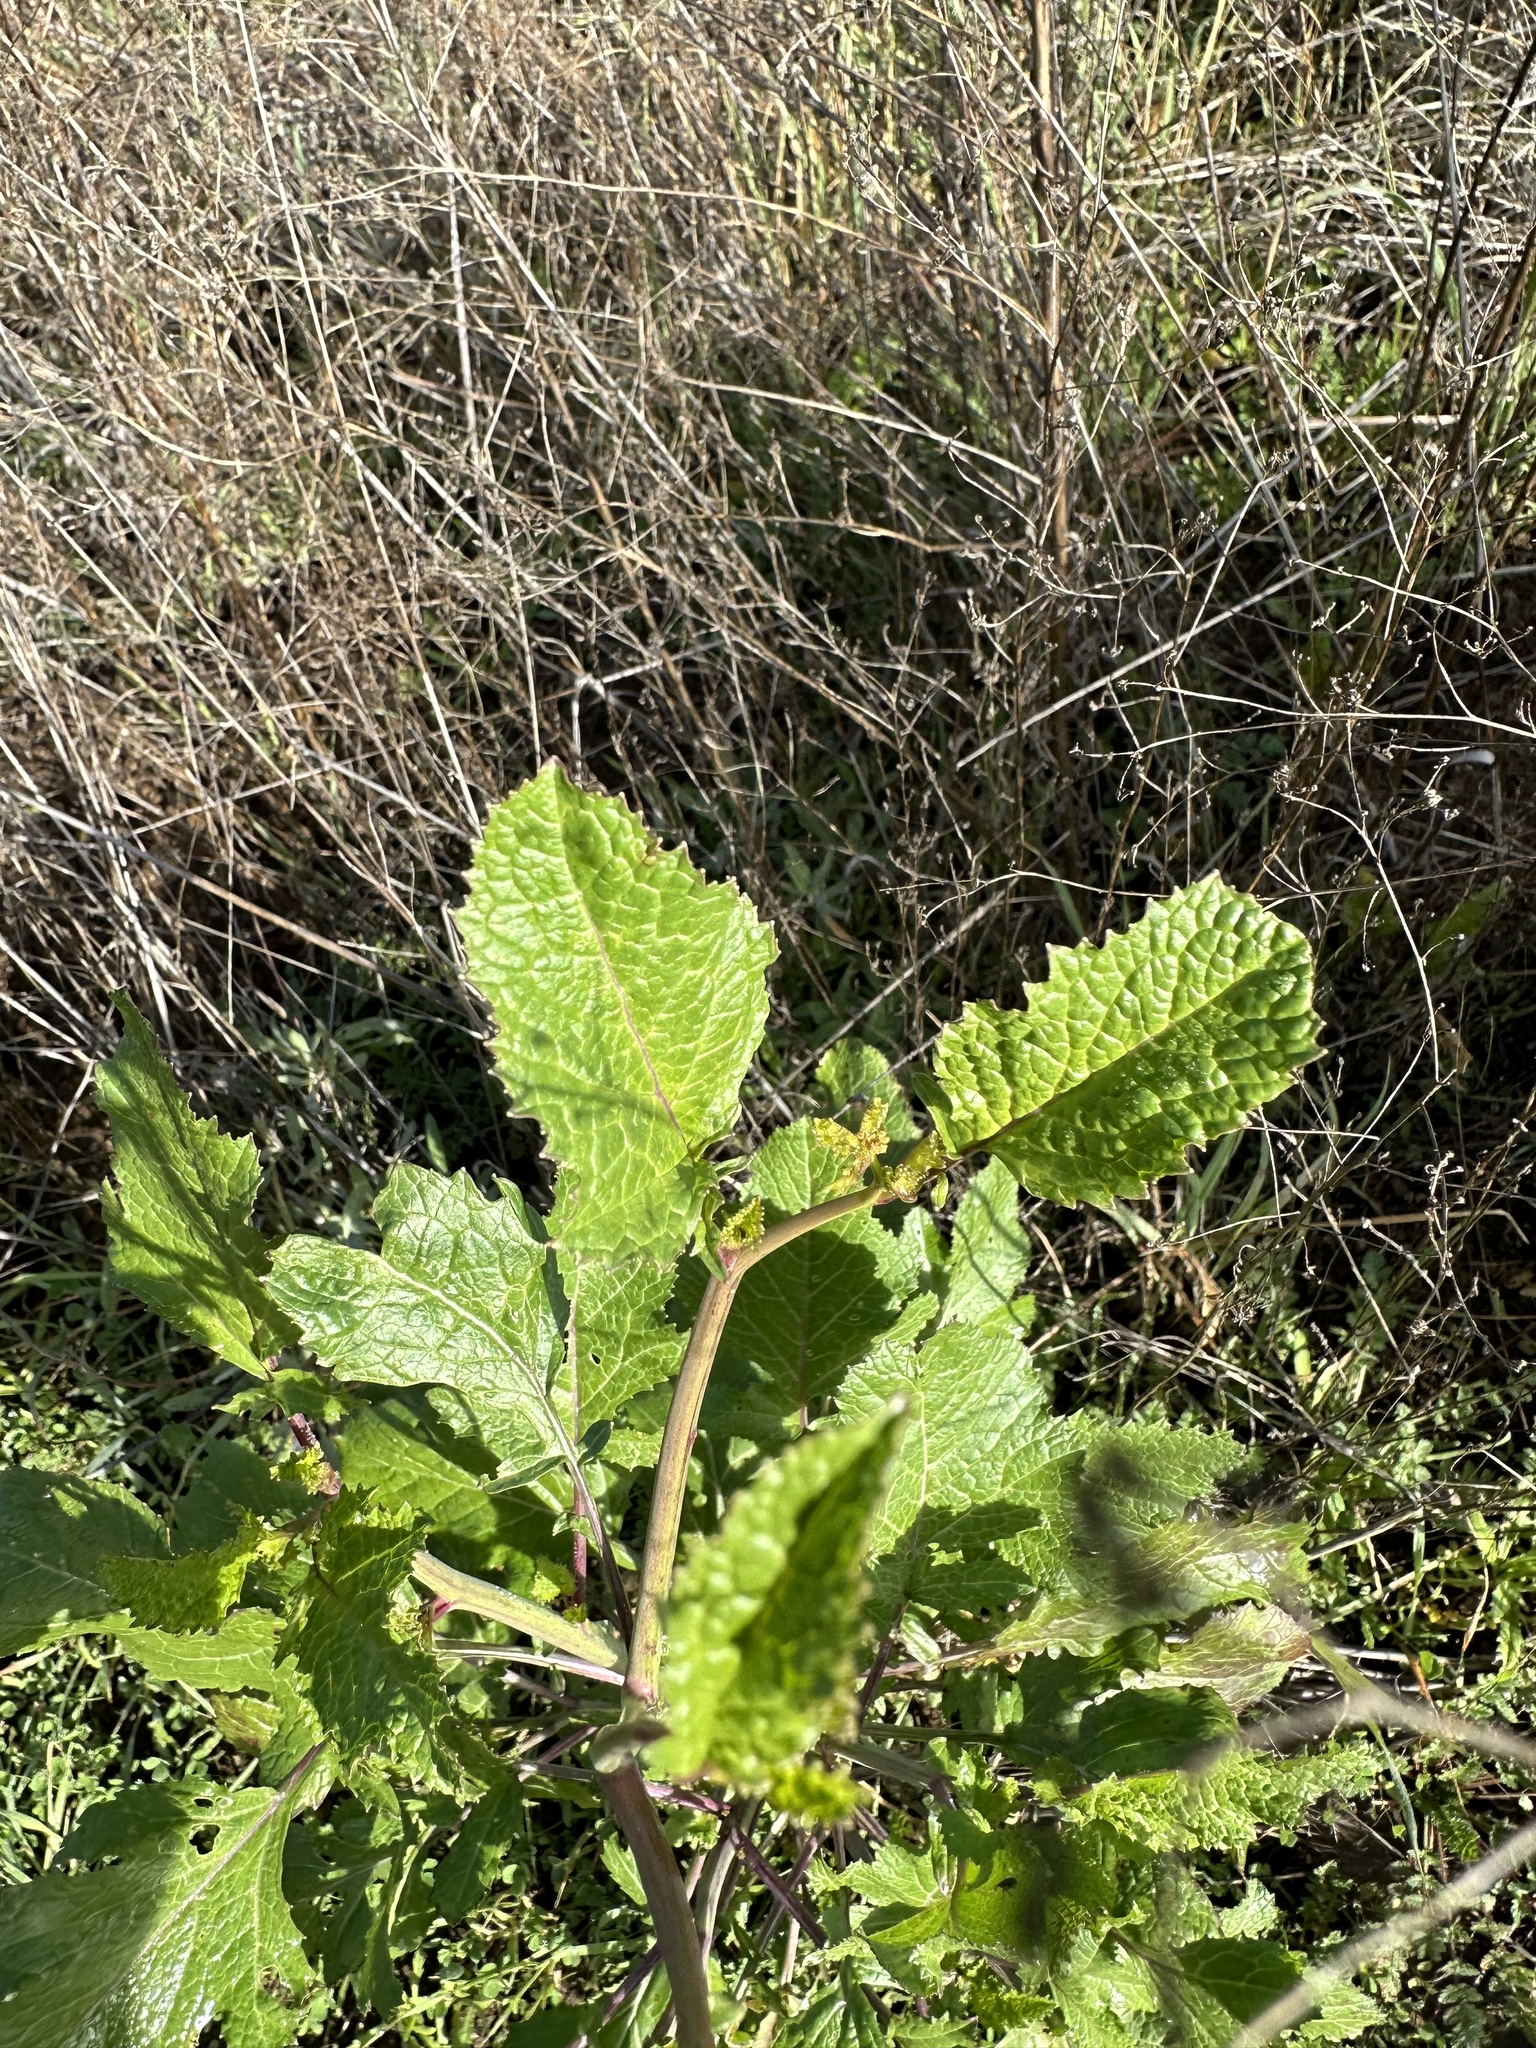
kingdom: Plantae
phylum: Tracheophyta
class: Magnoliopsida
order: Brassicales
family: Brassicaceae
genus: Brassica
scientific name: Brassica nigra
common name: Black mustard
